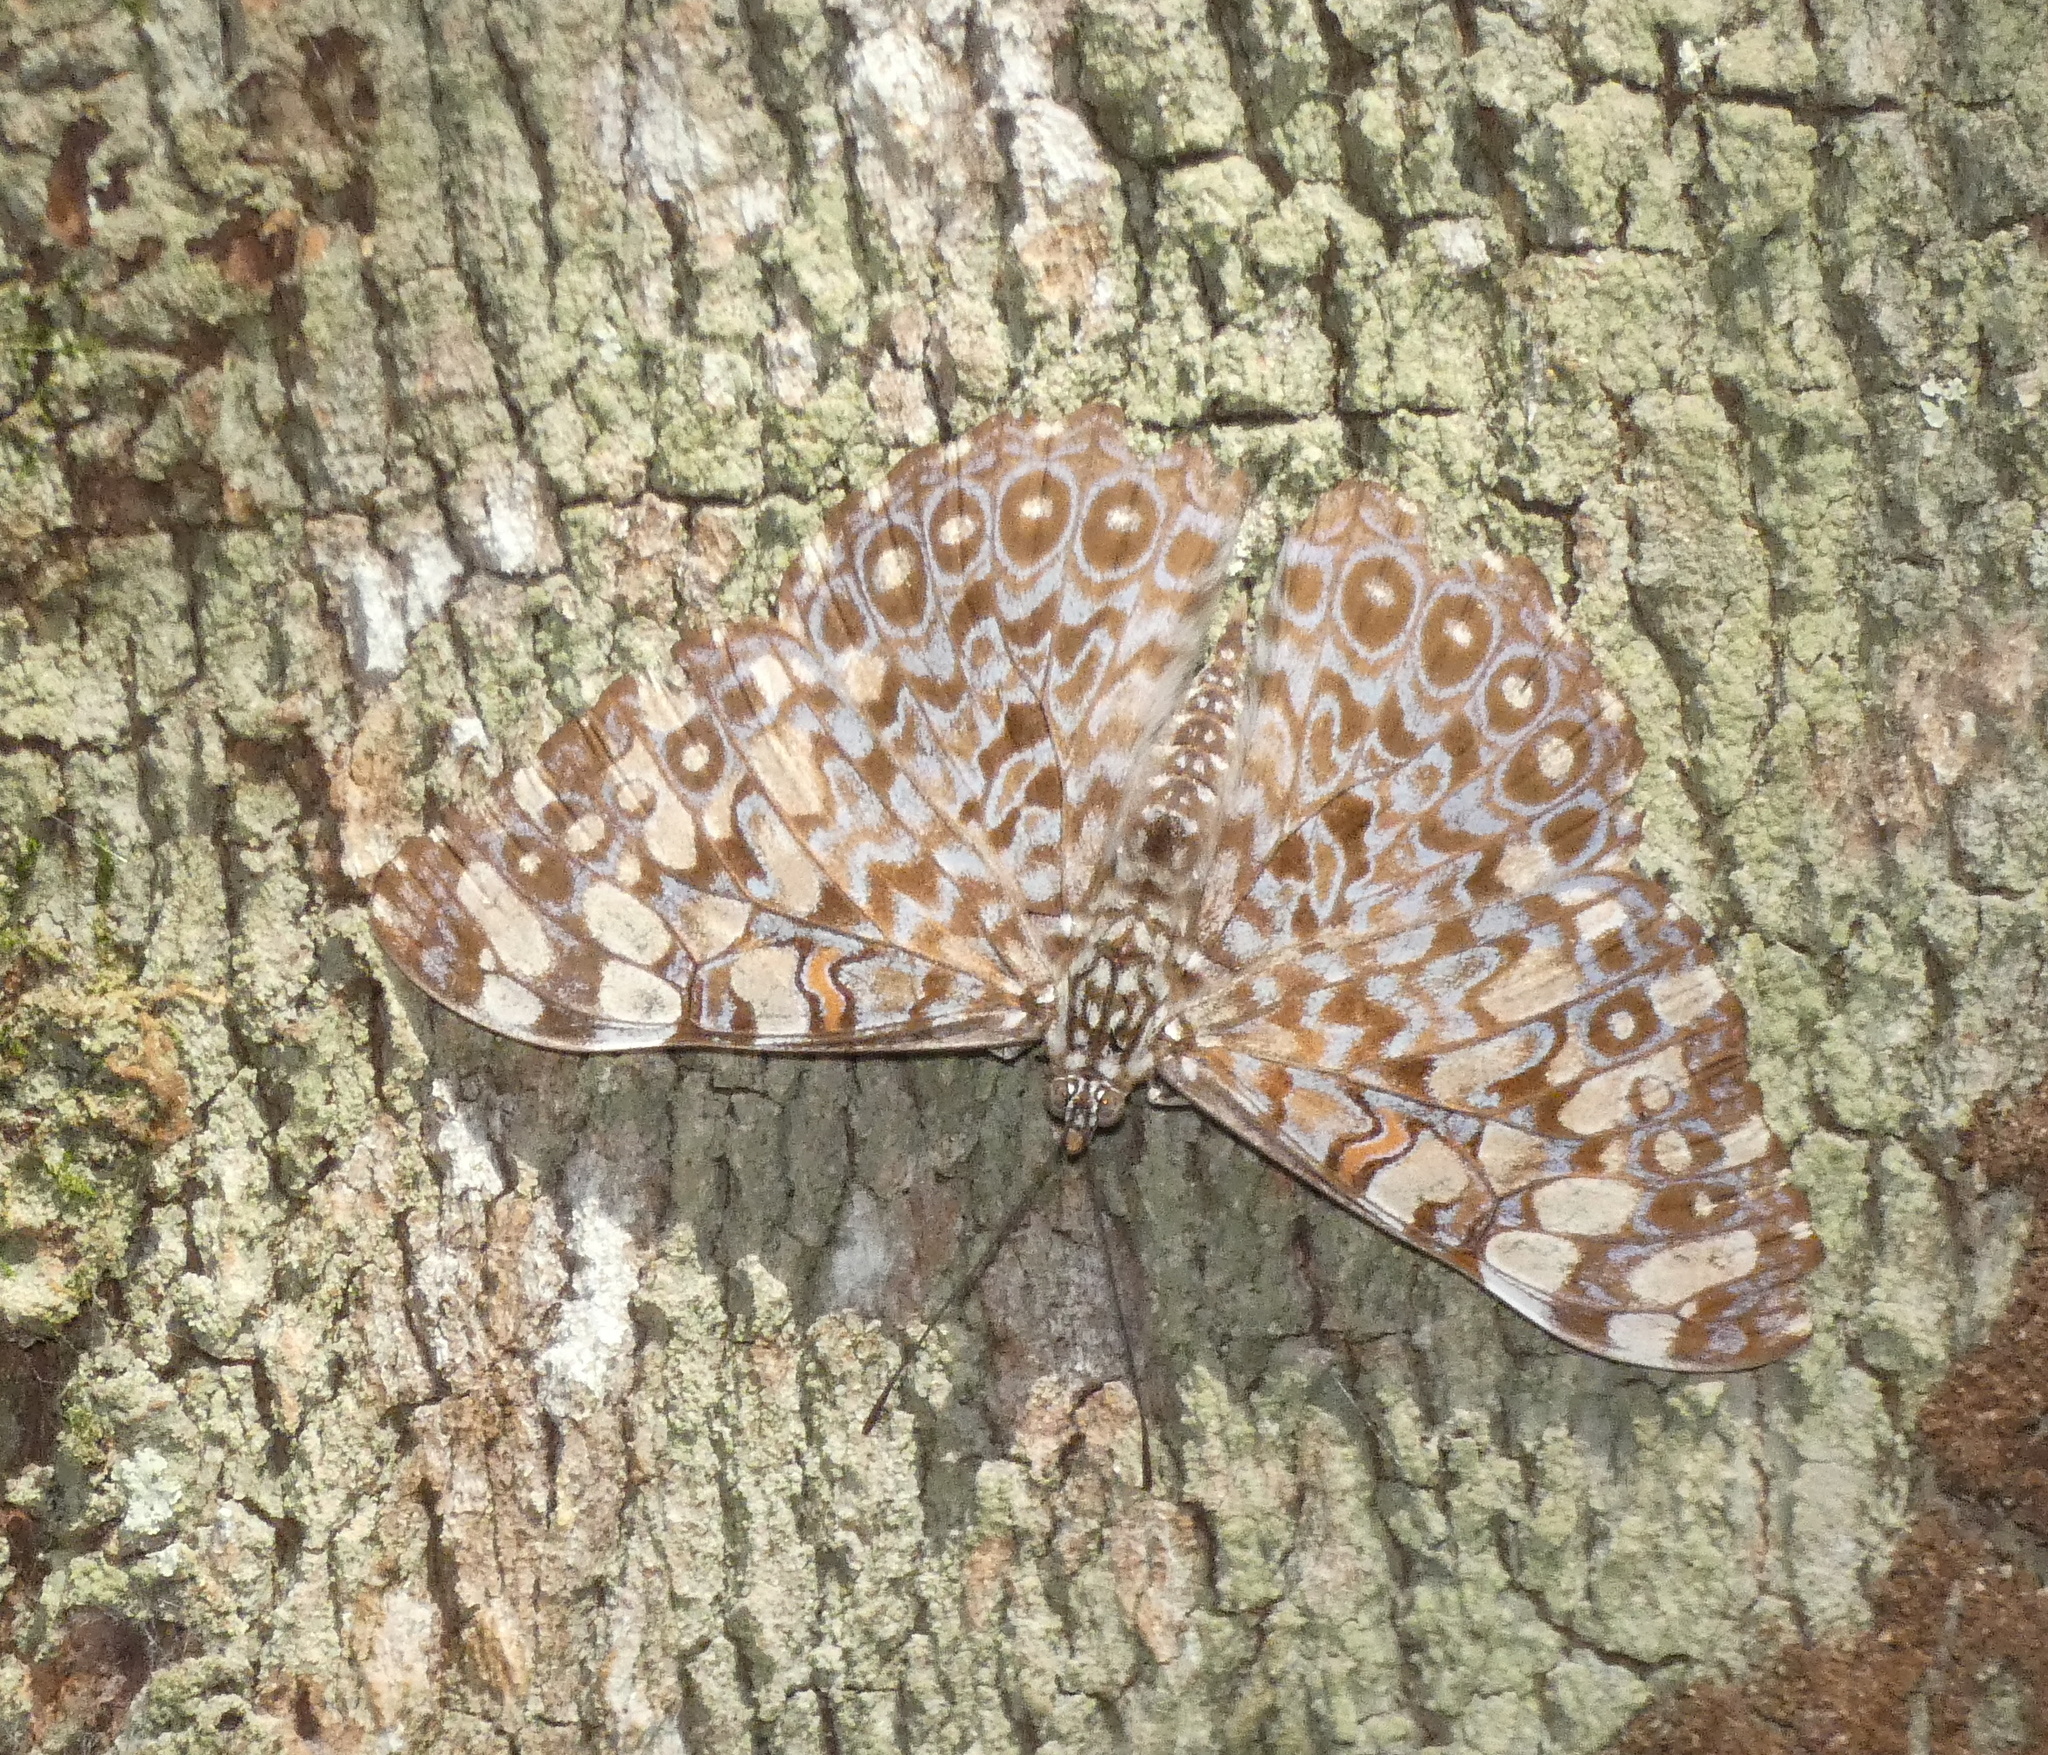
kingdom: Animalia
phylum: Arthropoda
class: Insecta
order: Lepidoptera
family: Nymphalidae
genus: Hamadryas
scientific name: Hamadryas feronia
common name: Variable cracker
